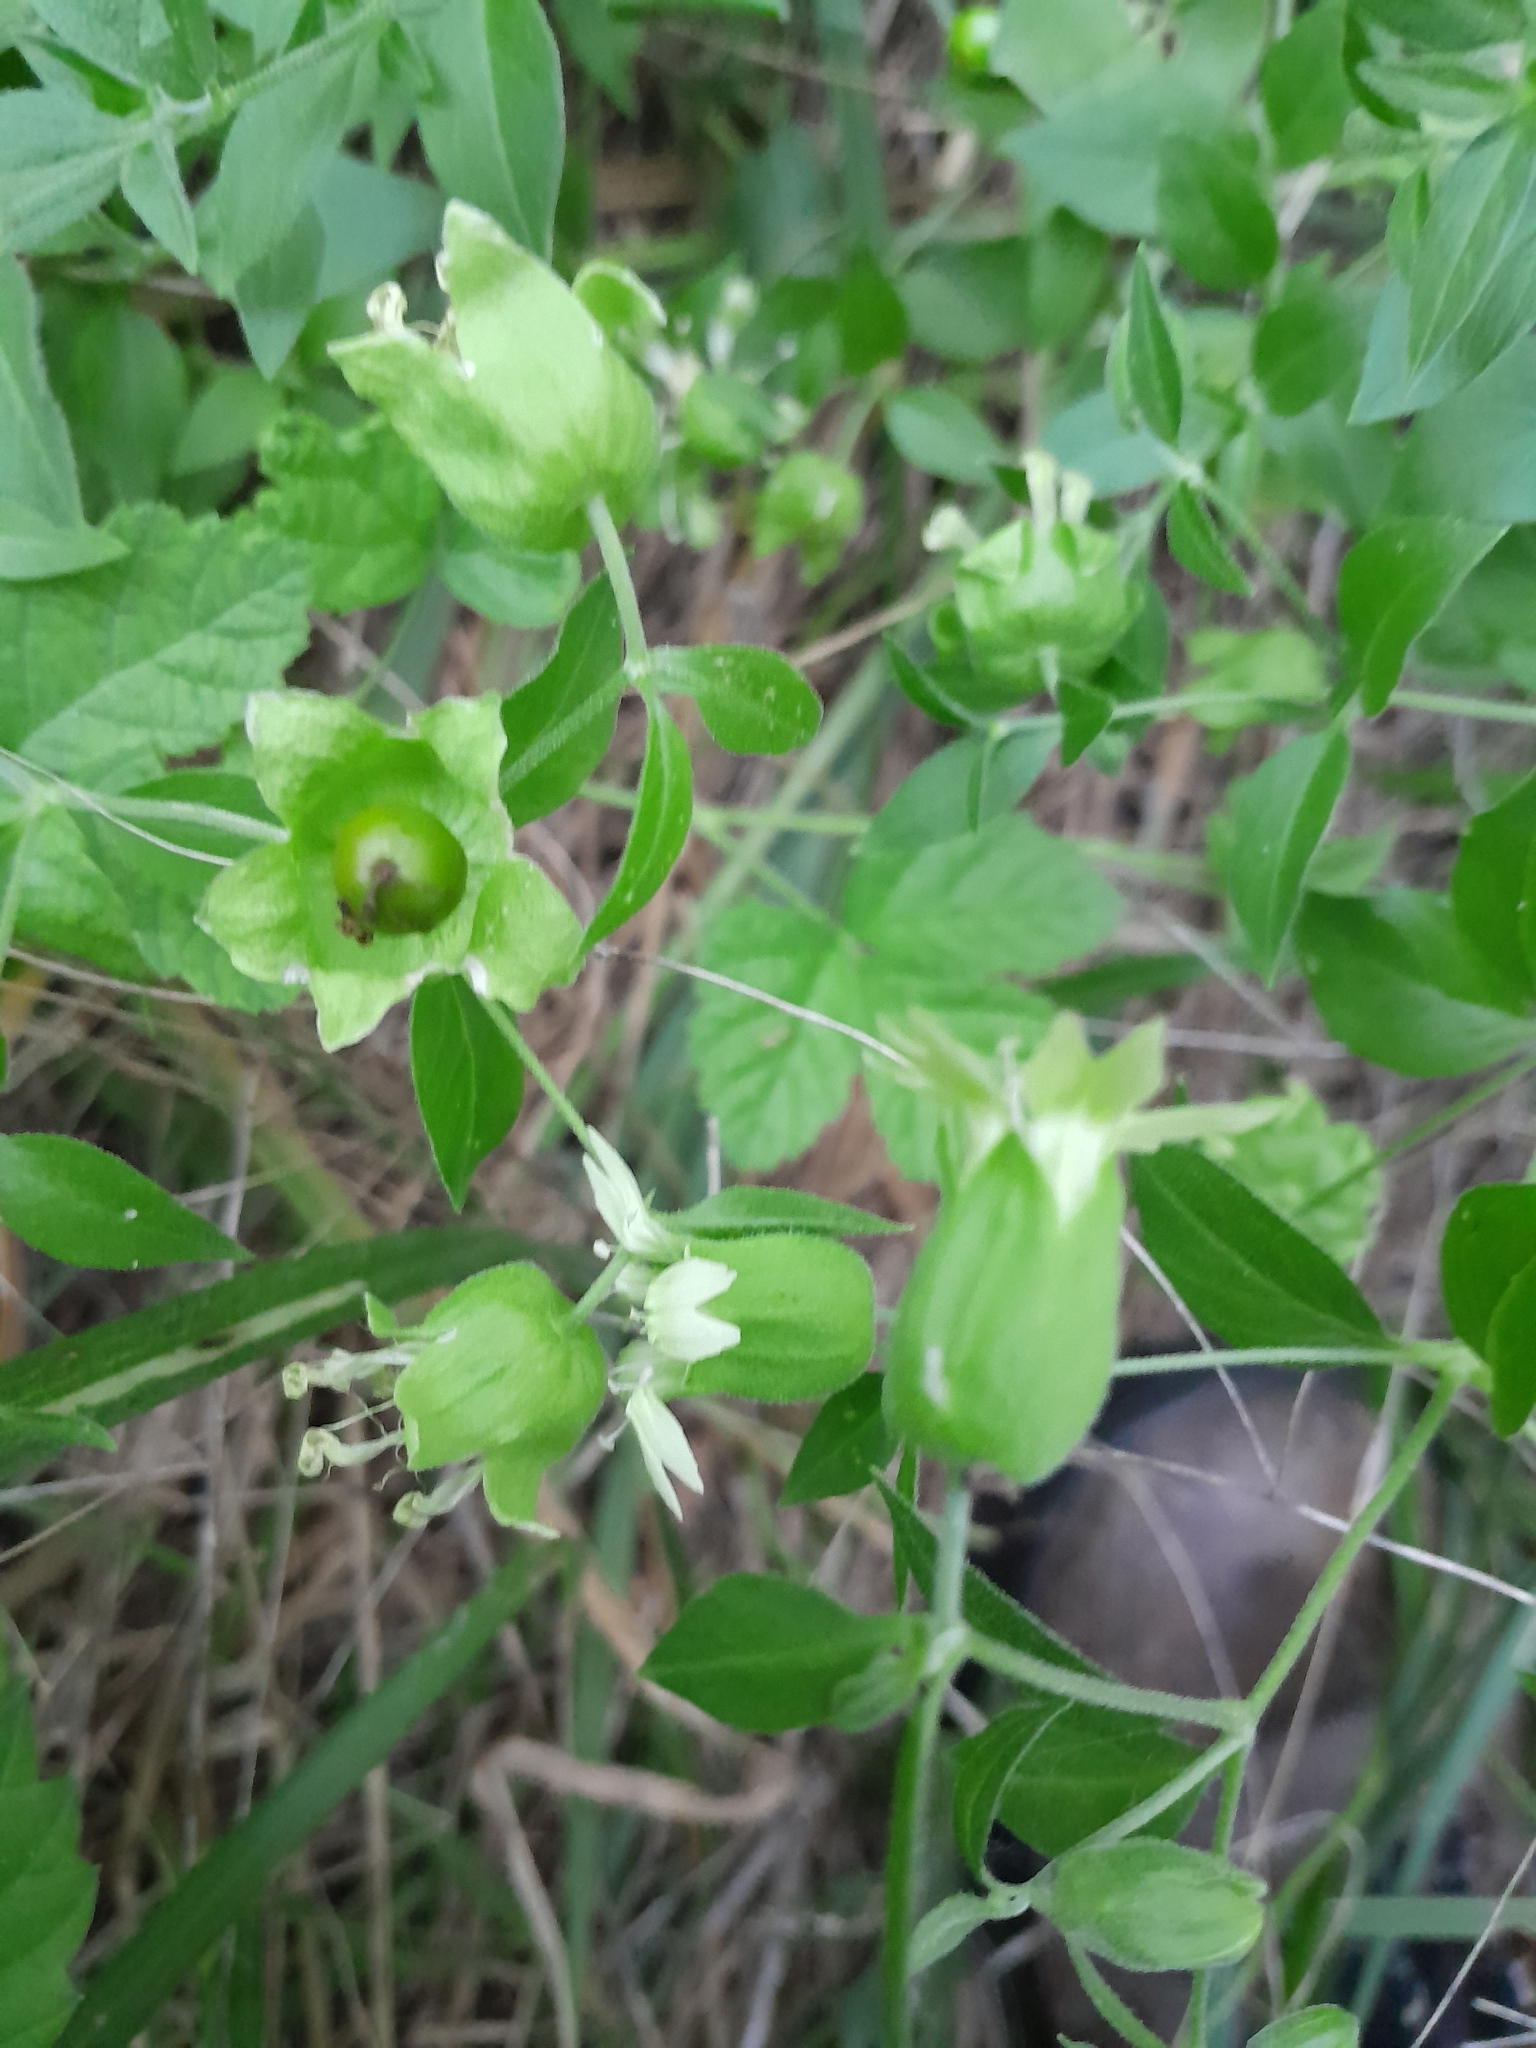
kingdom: Plantae
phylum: Tracheophyta
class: Magnoliopsida
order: Caryophyllales
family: Caryophyllaceae
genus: Silene
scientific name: Silene baccifera
